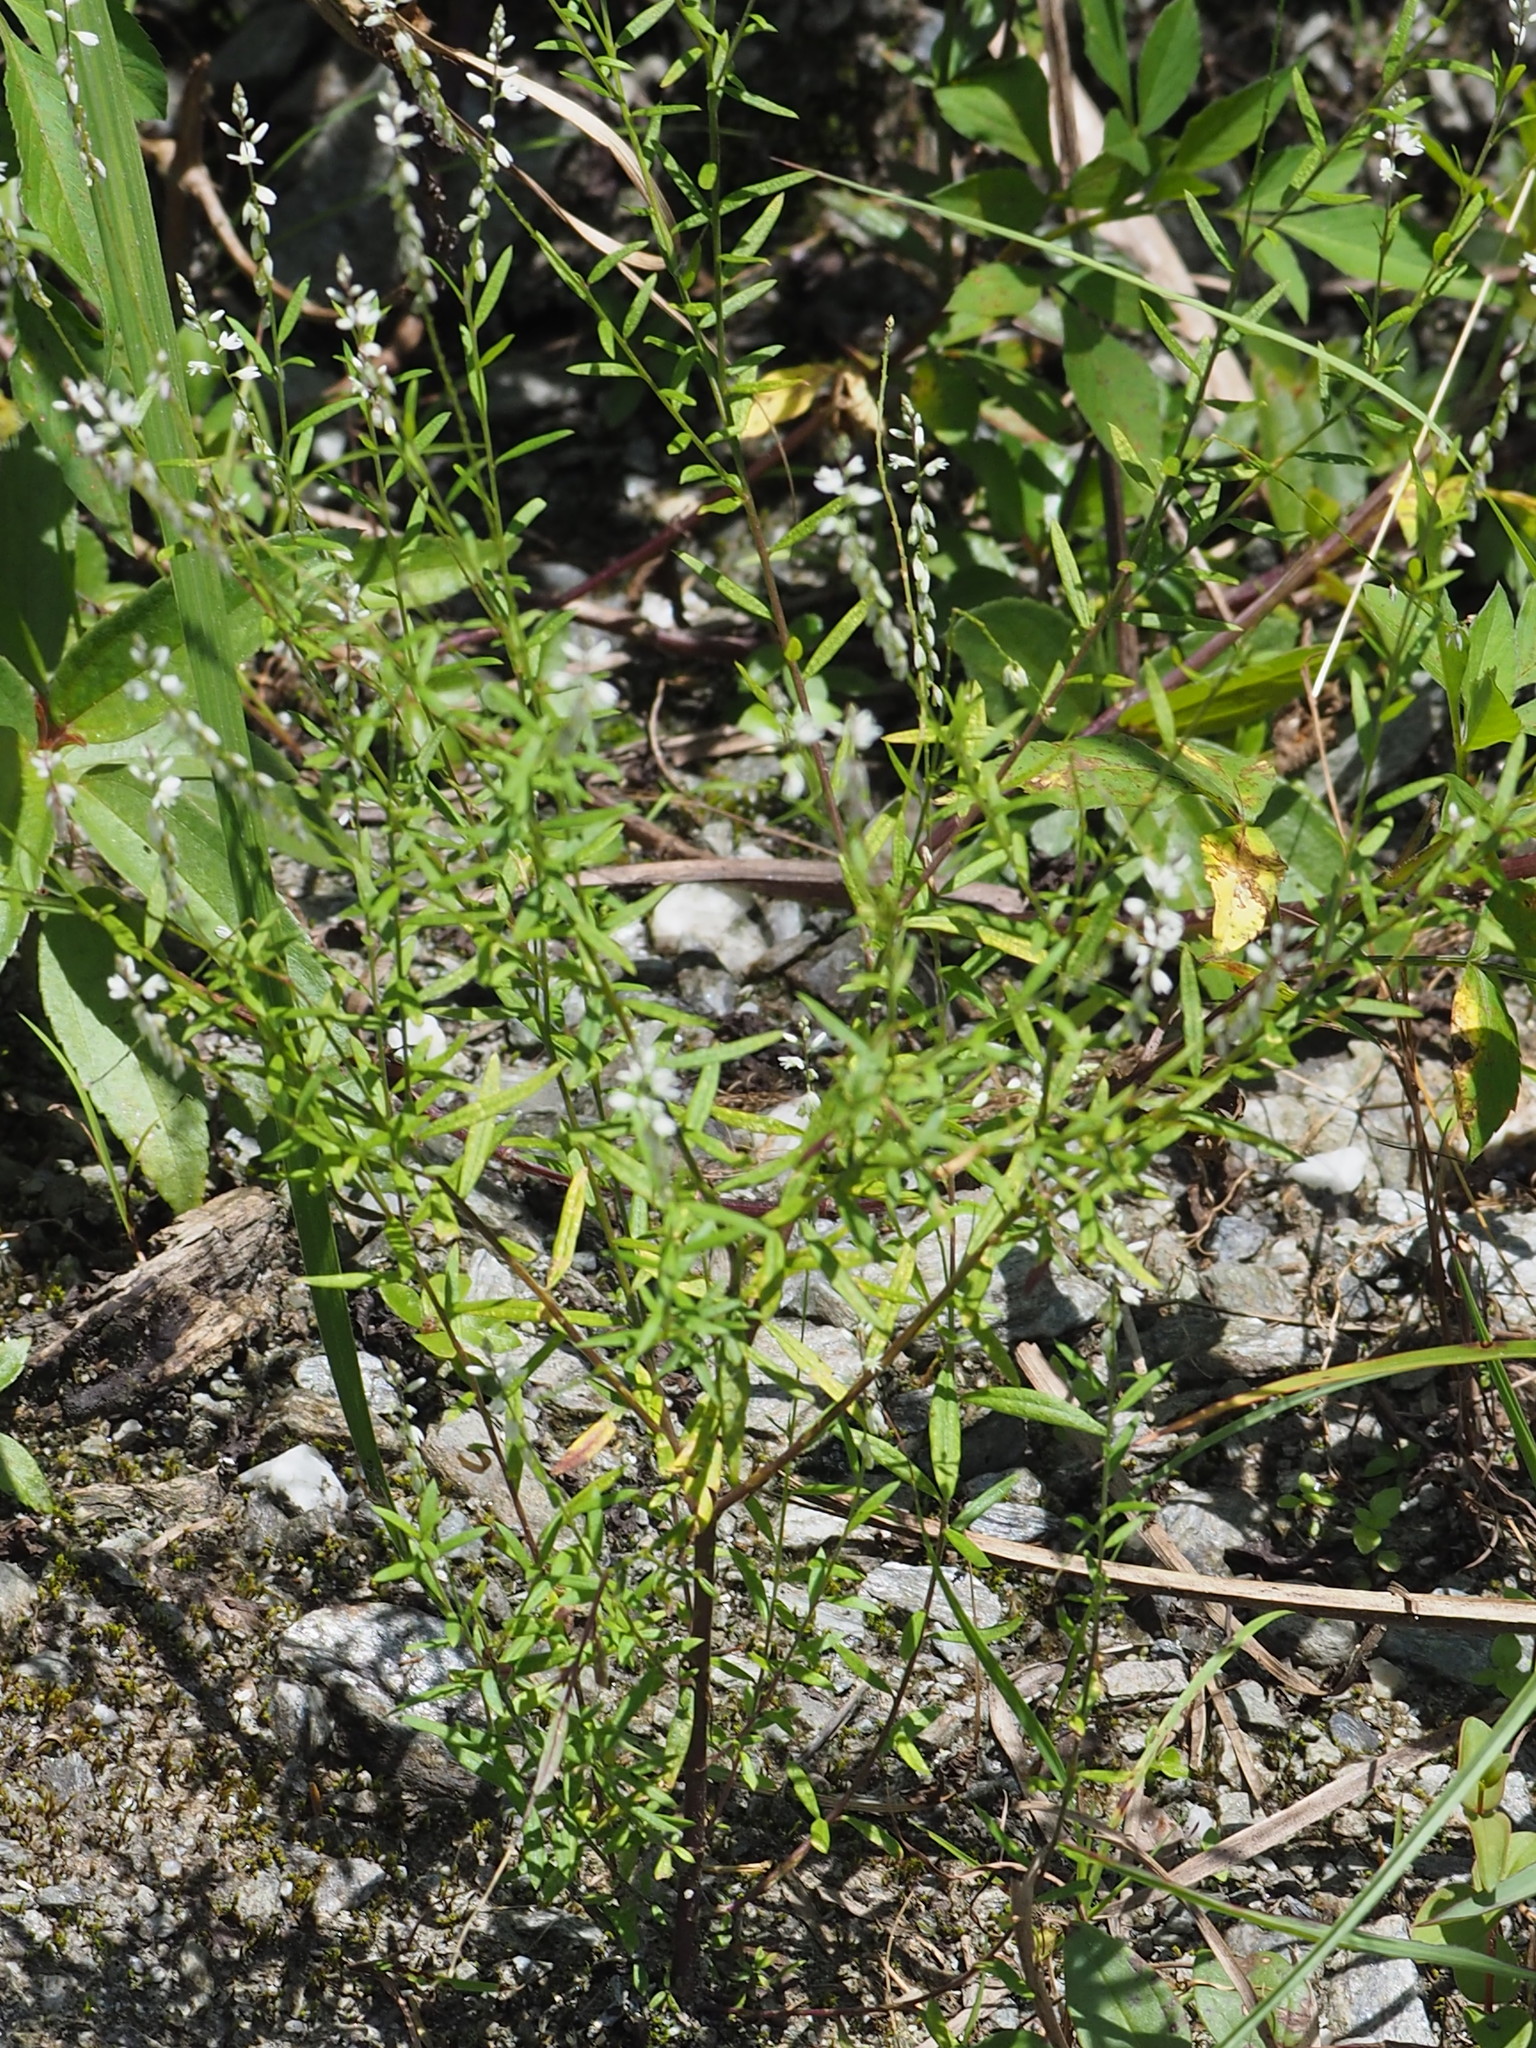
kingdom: Plantae
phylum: Tracheophyta
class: Magnoliopsida
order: Fabales
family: Polygalaceae
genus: Polygala
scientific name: Polygala paniculata
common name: Orosne
